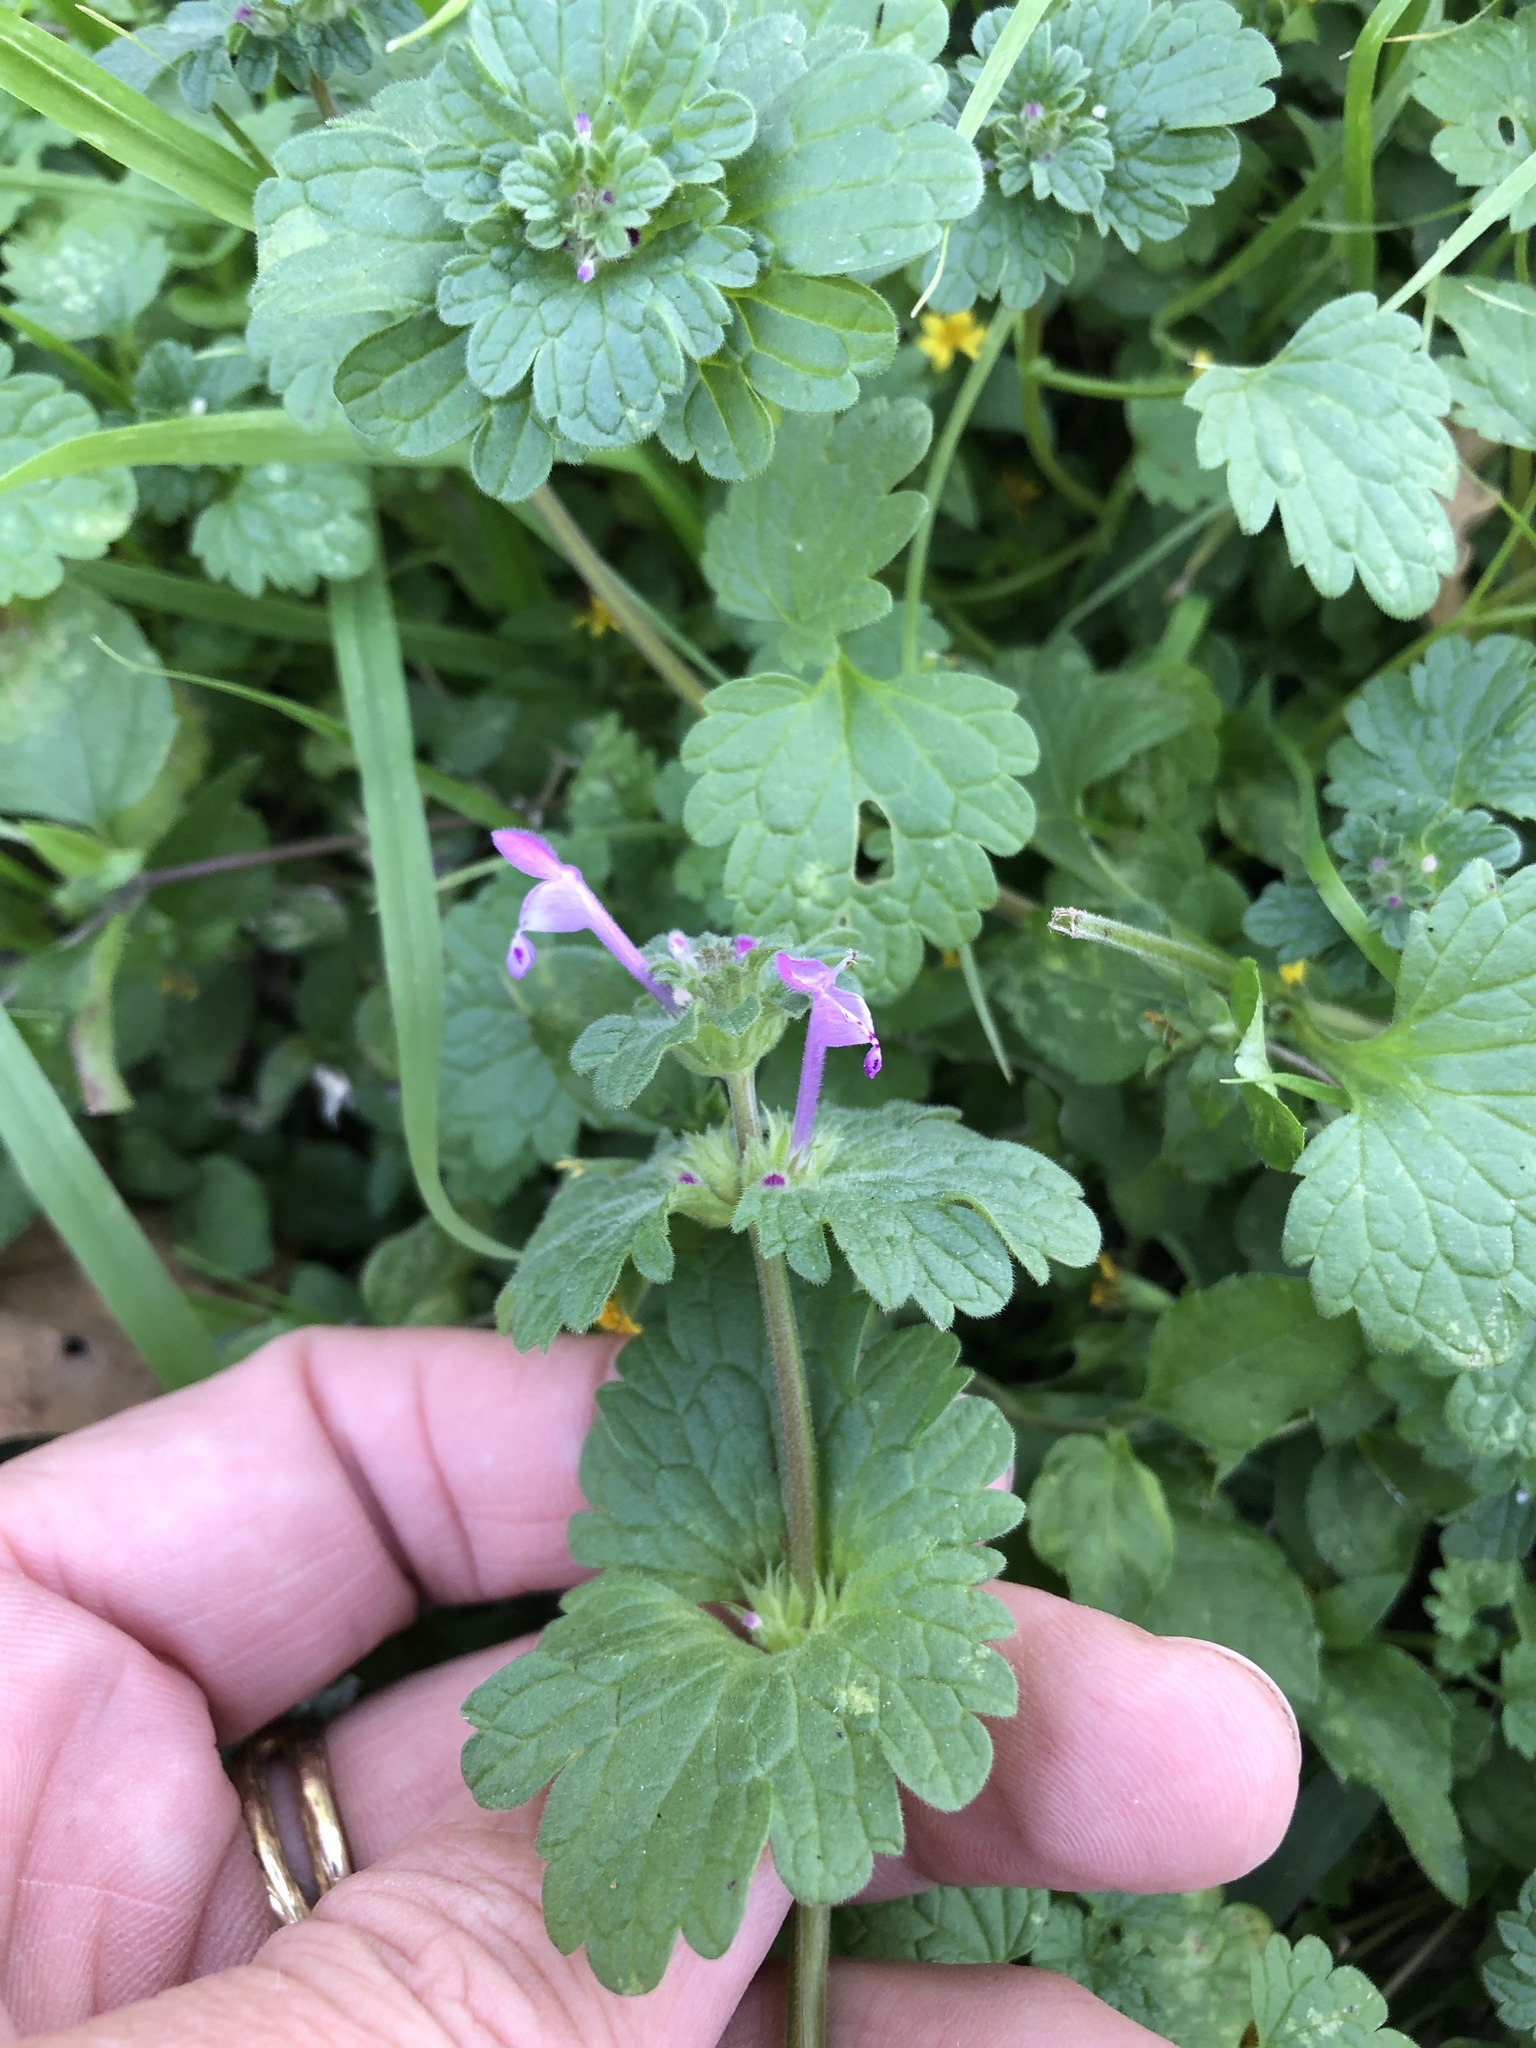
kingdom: Plantae
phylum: Tracheophyta
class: Magnoliopsida
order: Lamiales
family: Lamiaceae
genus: Lamium
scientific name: Lamium amplexicaule
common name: Henbit dead-nettle
